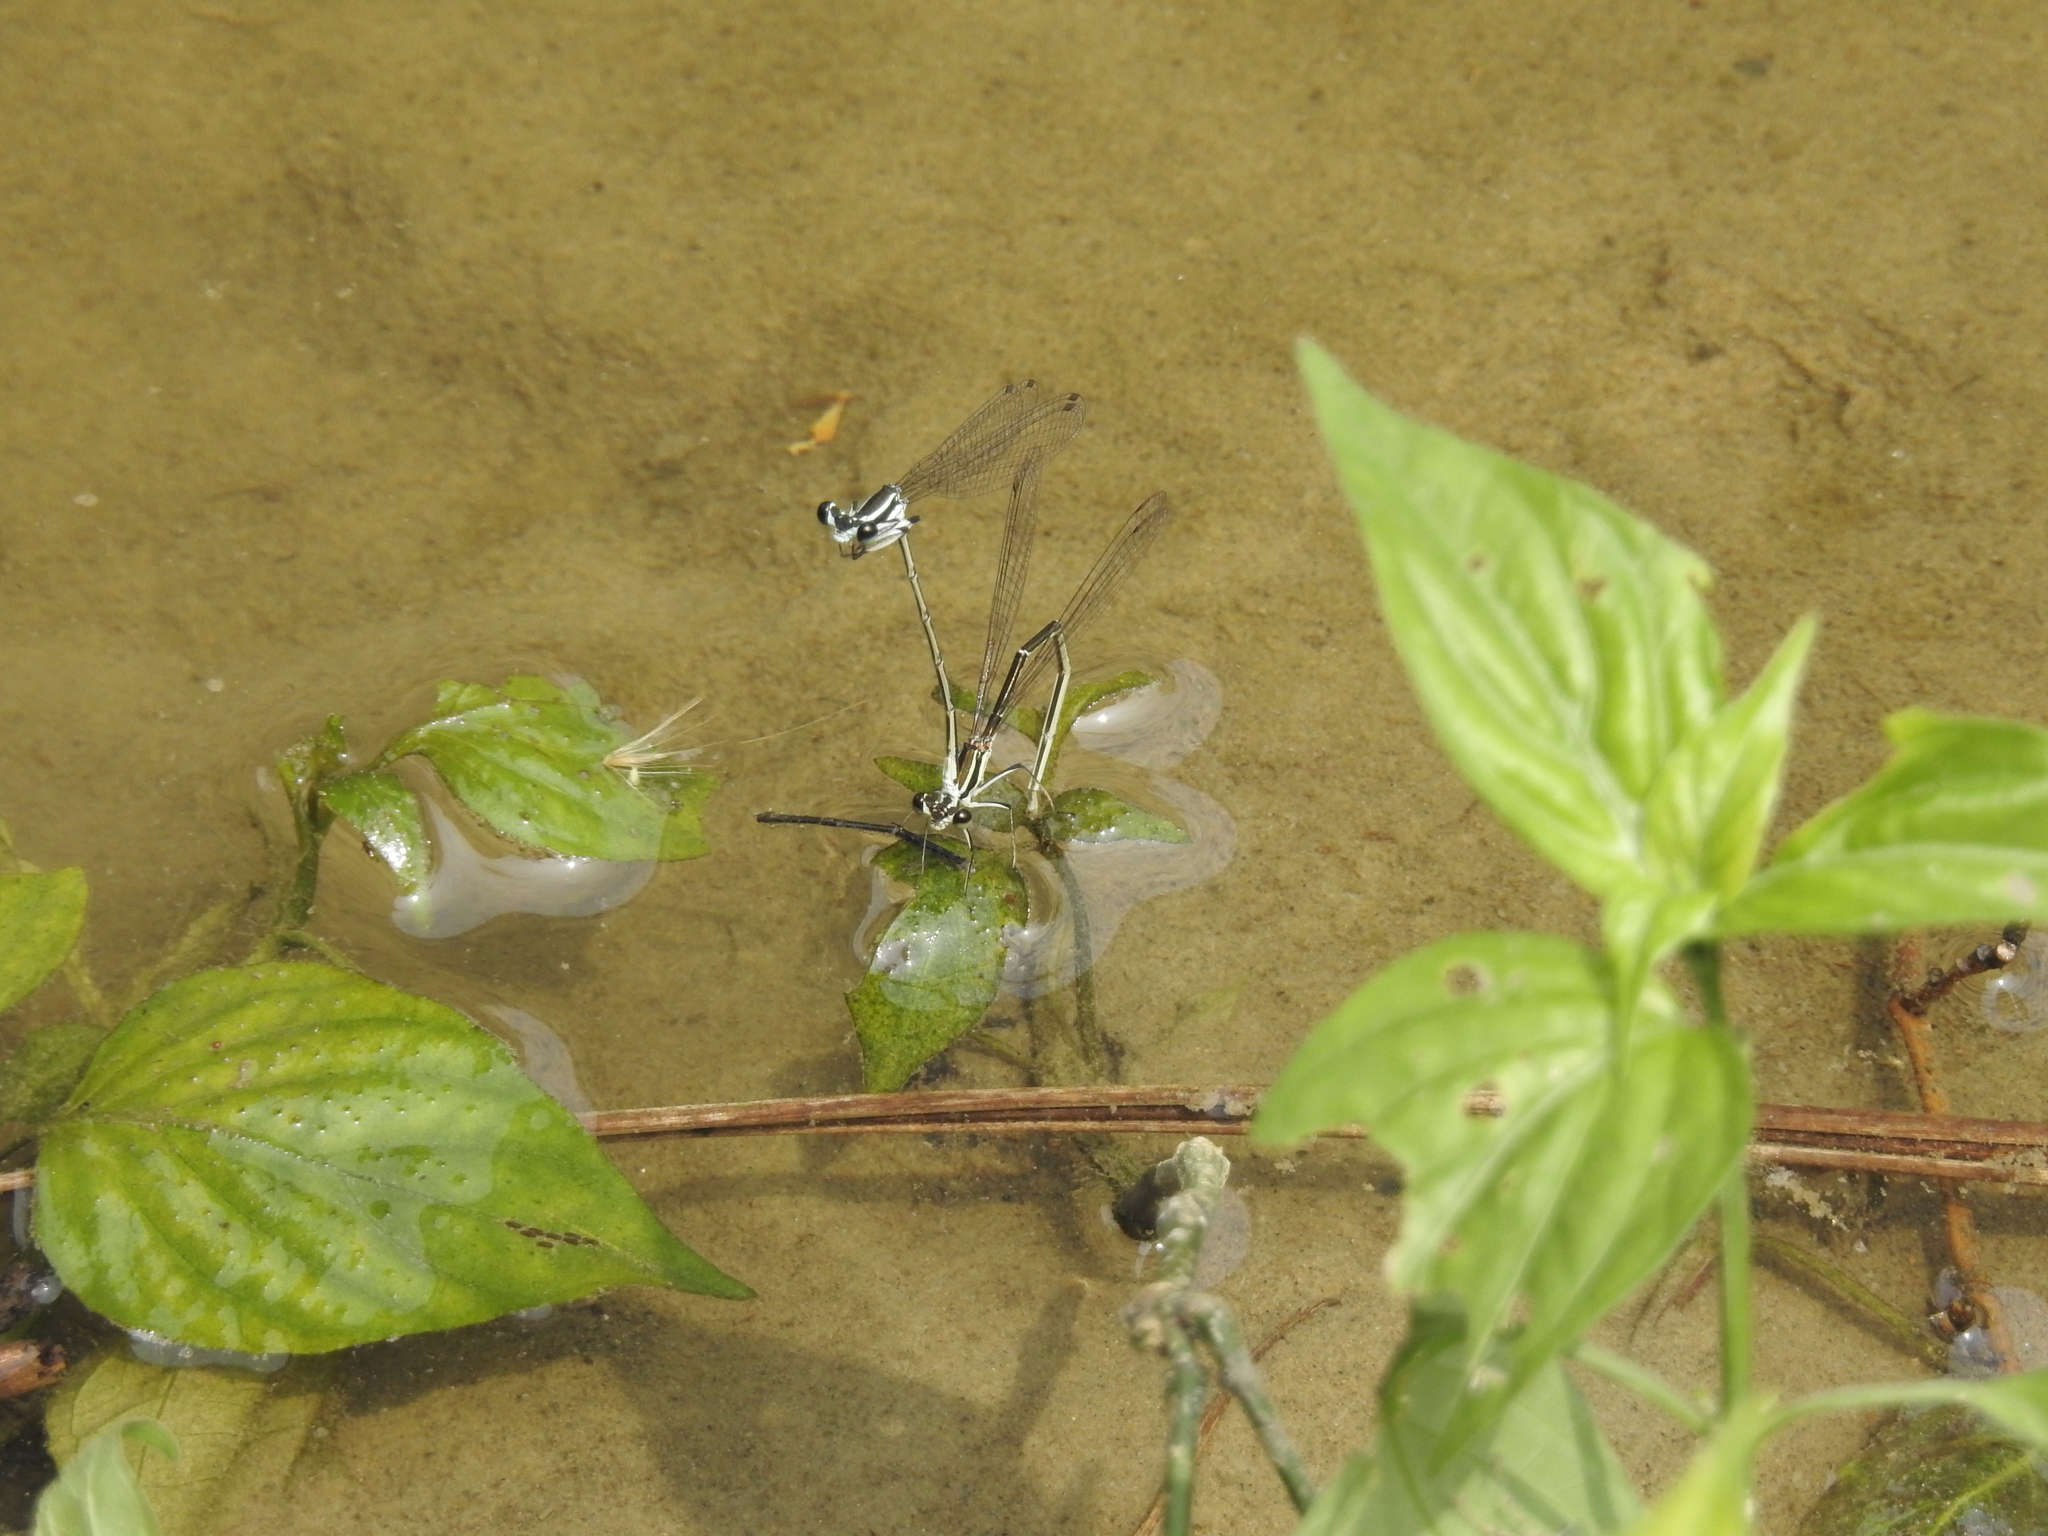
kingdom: Animalia
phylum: Arthropoda
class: Insecta
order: Odonata
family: Platycnemididae
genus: Pseudocopera
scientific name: Pseudocopera ciliata
